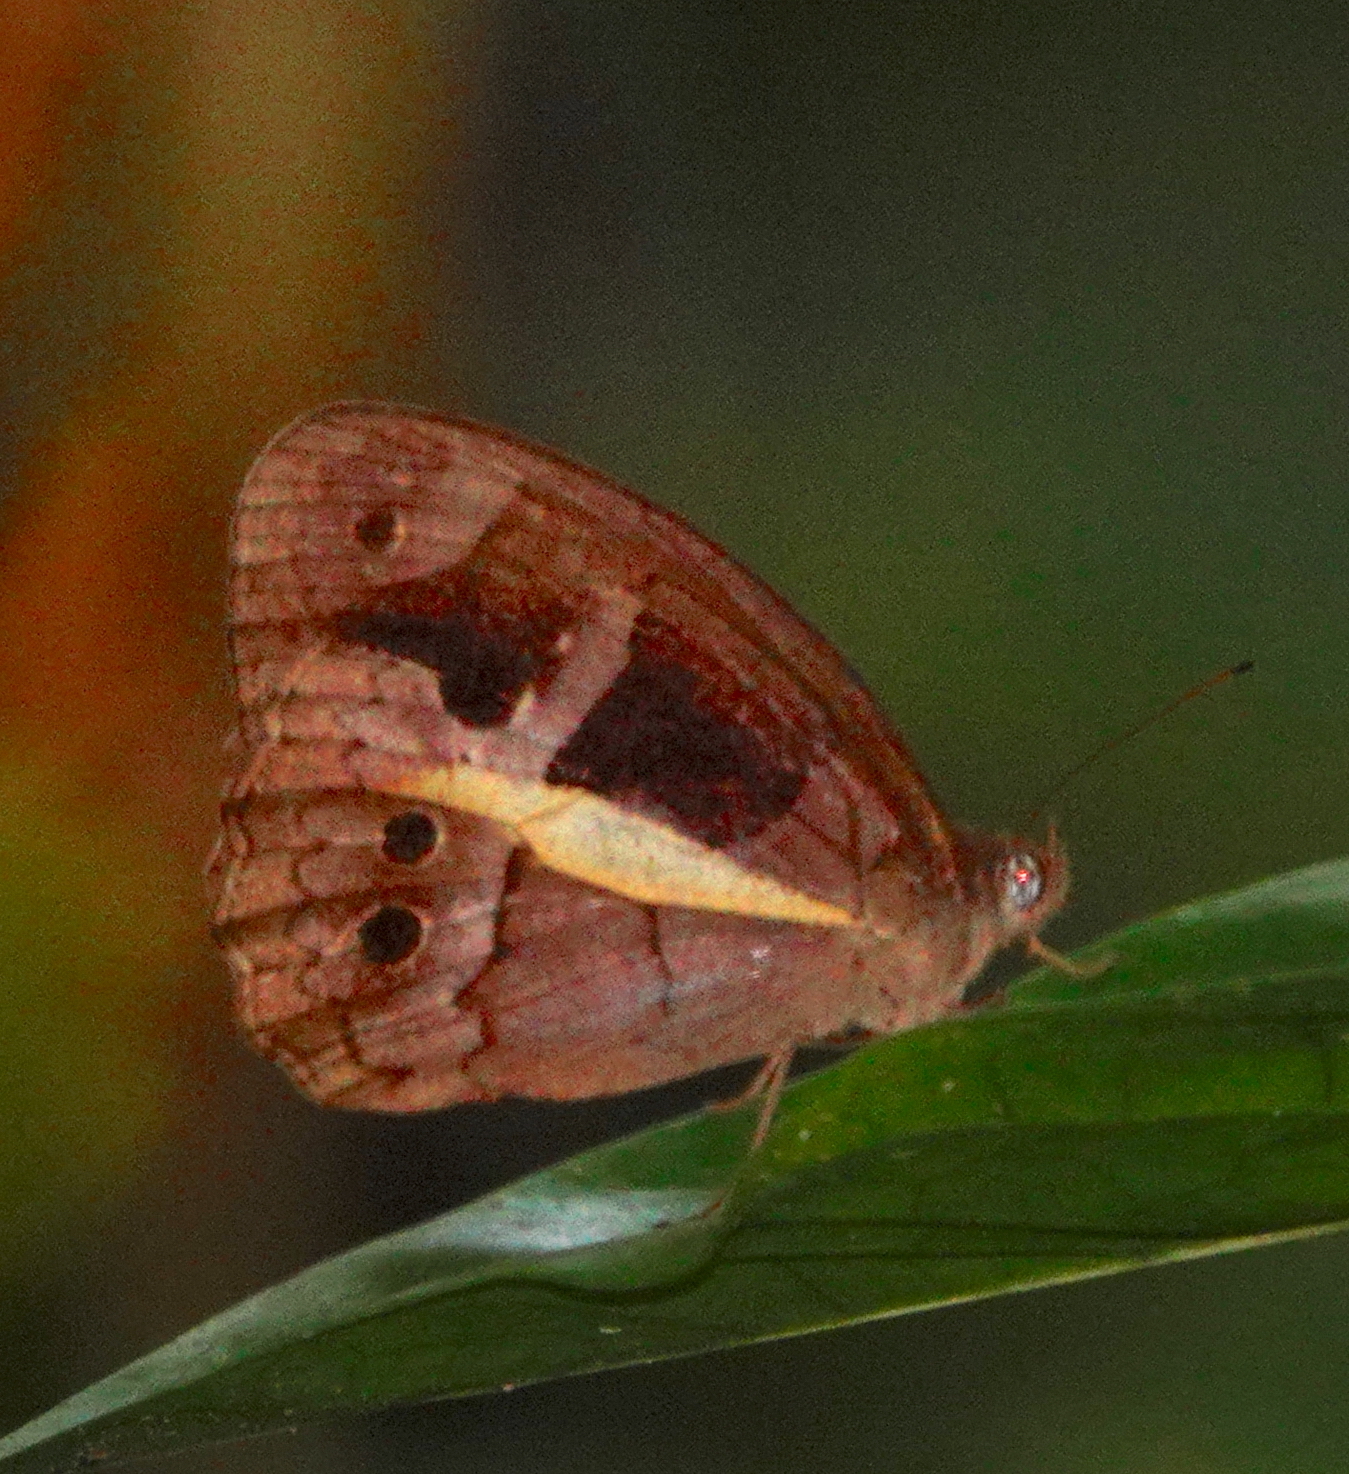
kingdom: Animalia
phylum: Arthropoda
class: Insecta
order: Lepidoptera
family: Nymphalidae
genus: Posttaygetis
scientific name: Posttaygetis penelea
